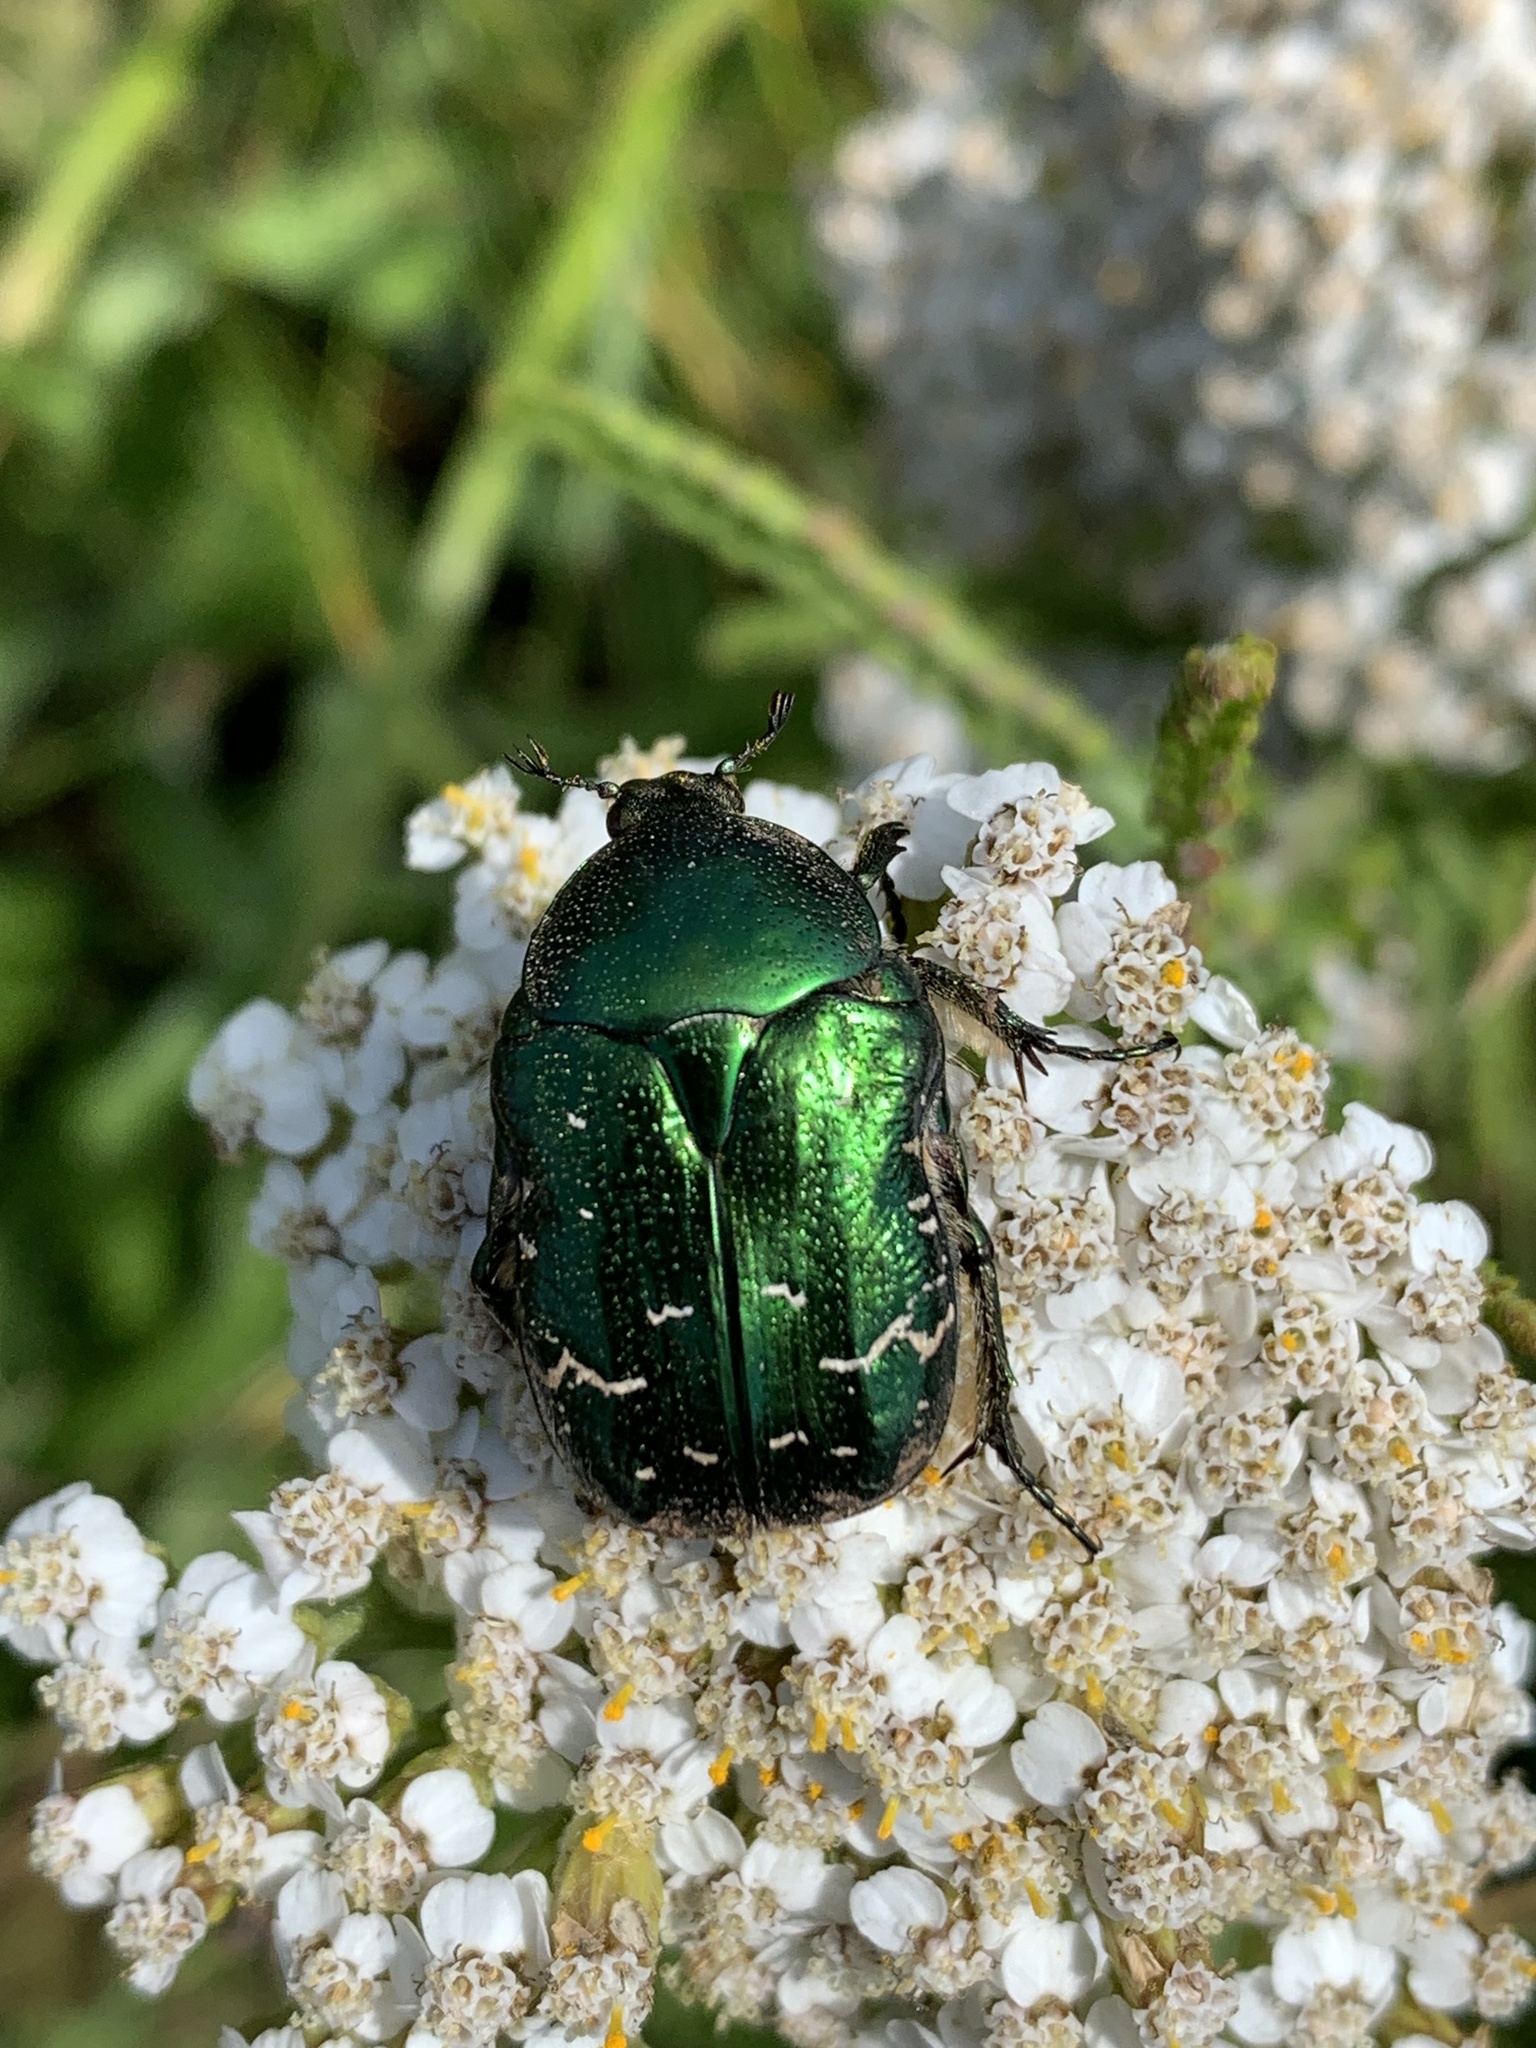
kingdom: Animalia
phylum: Arthropoda
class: Insecta
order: Coleoptera
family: Scarabaeidae
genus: Cetonia
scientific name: Cetonia aurata
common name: Rose chafer
